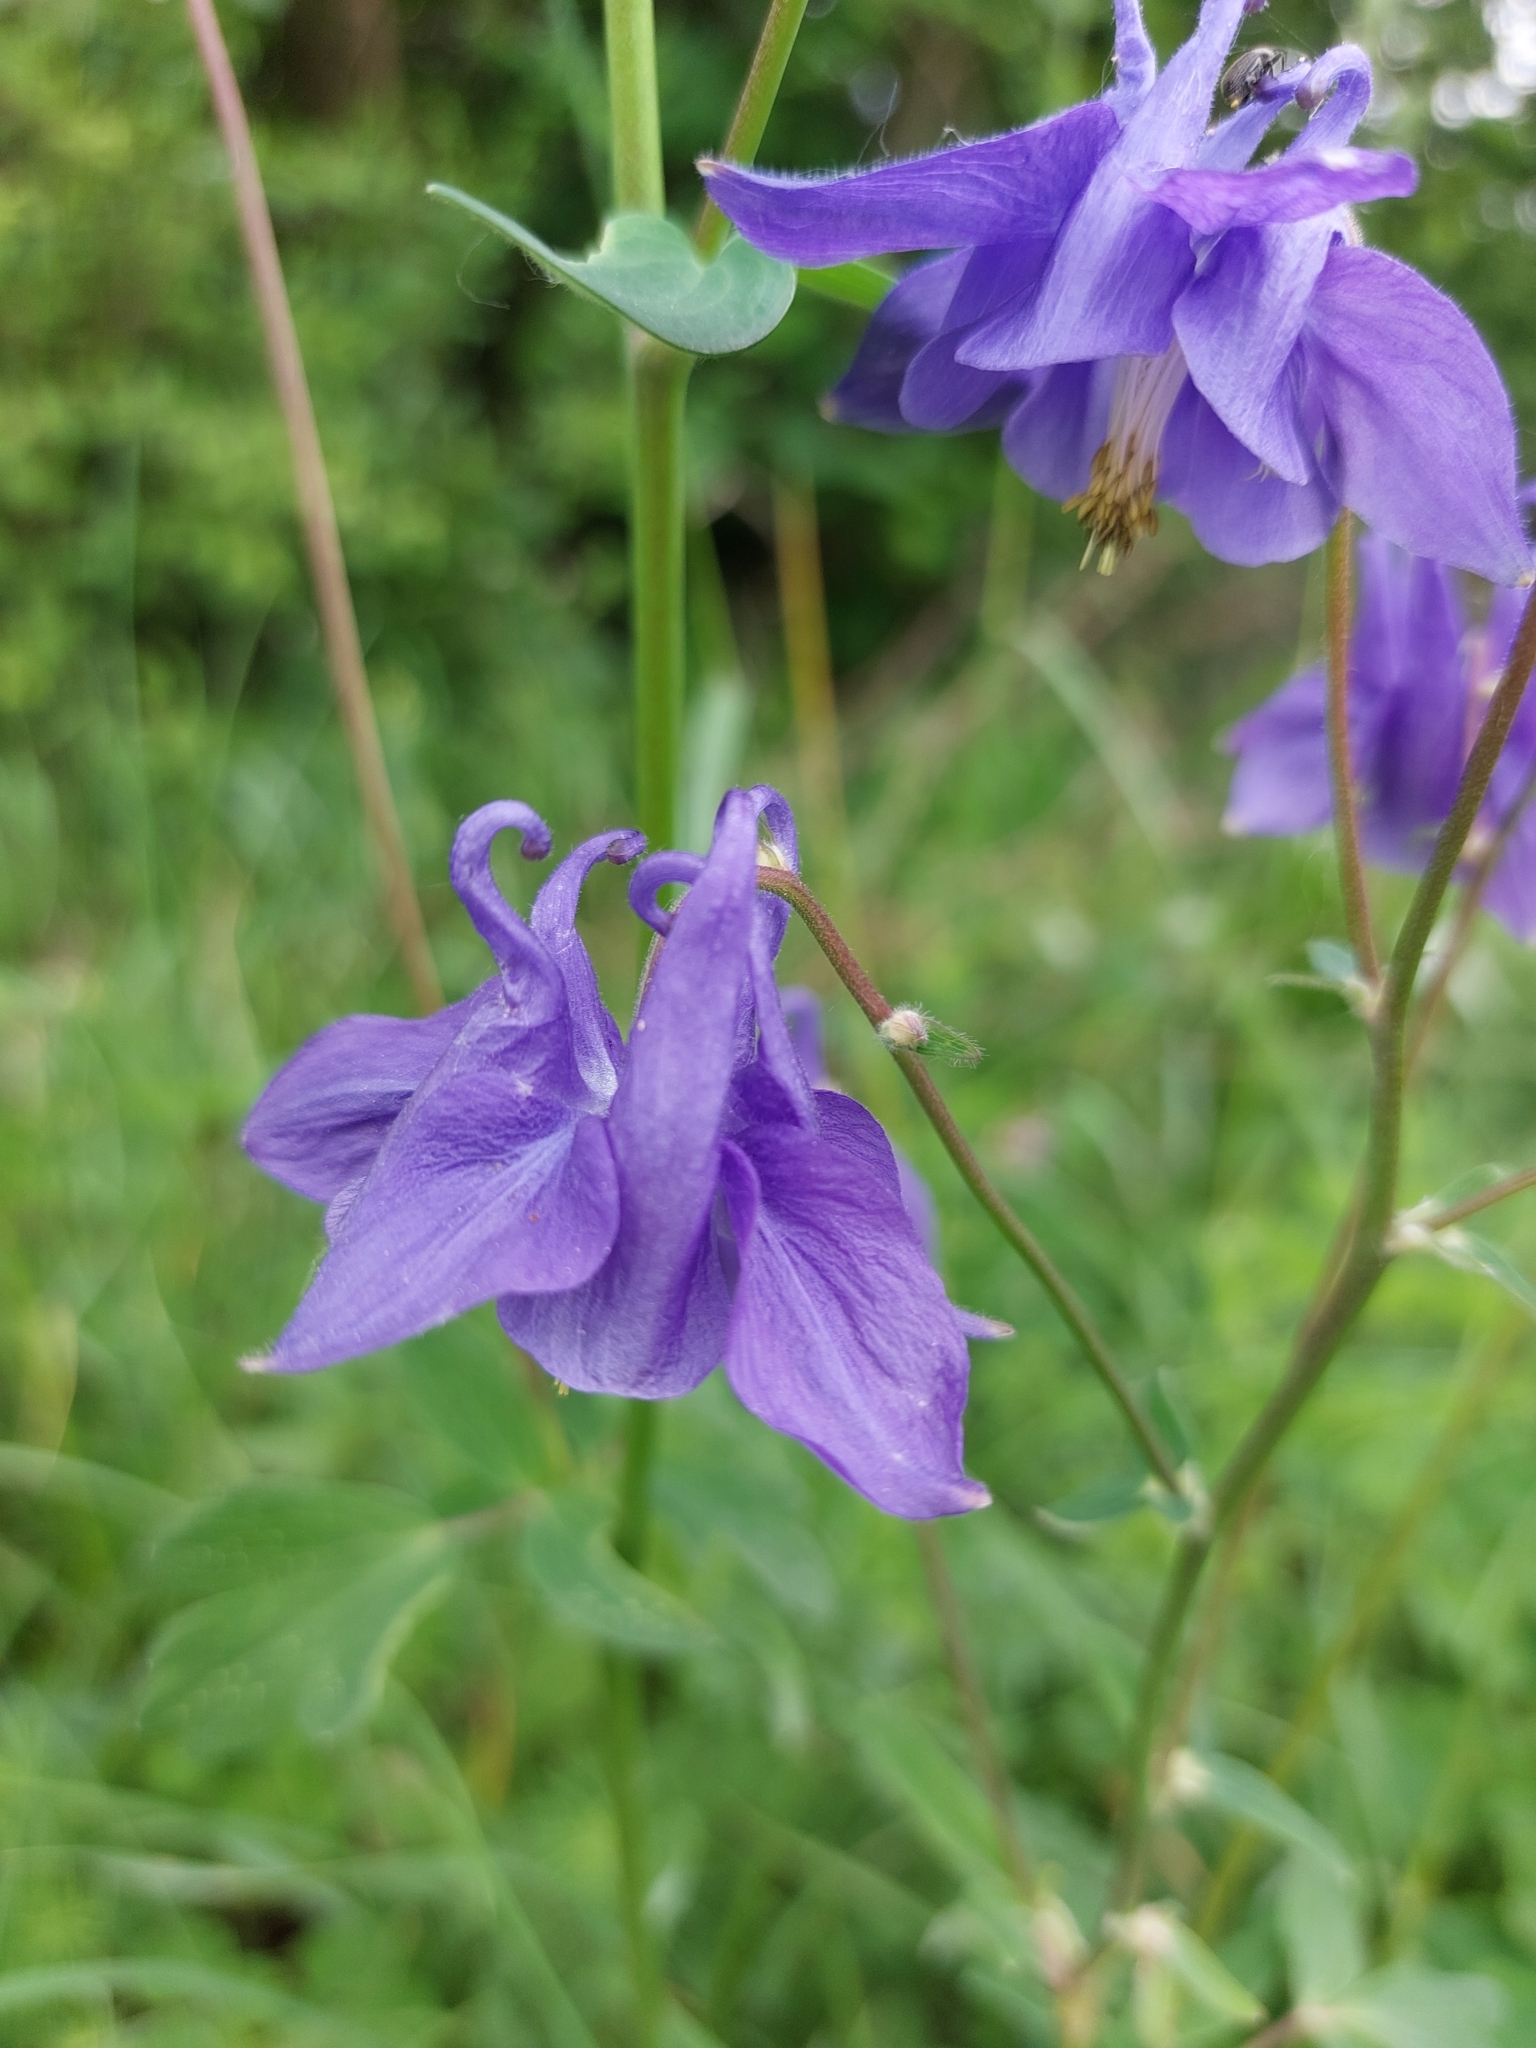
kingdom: Plantae
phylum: Tracheophyta
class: Magnoliopsida
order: Ranunculales
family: Ranunculaceae
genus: Aquilegia
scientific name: Aquilegia vulgaris
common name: Columbine
